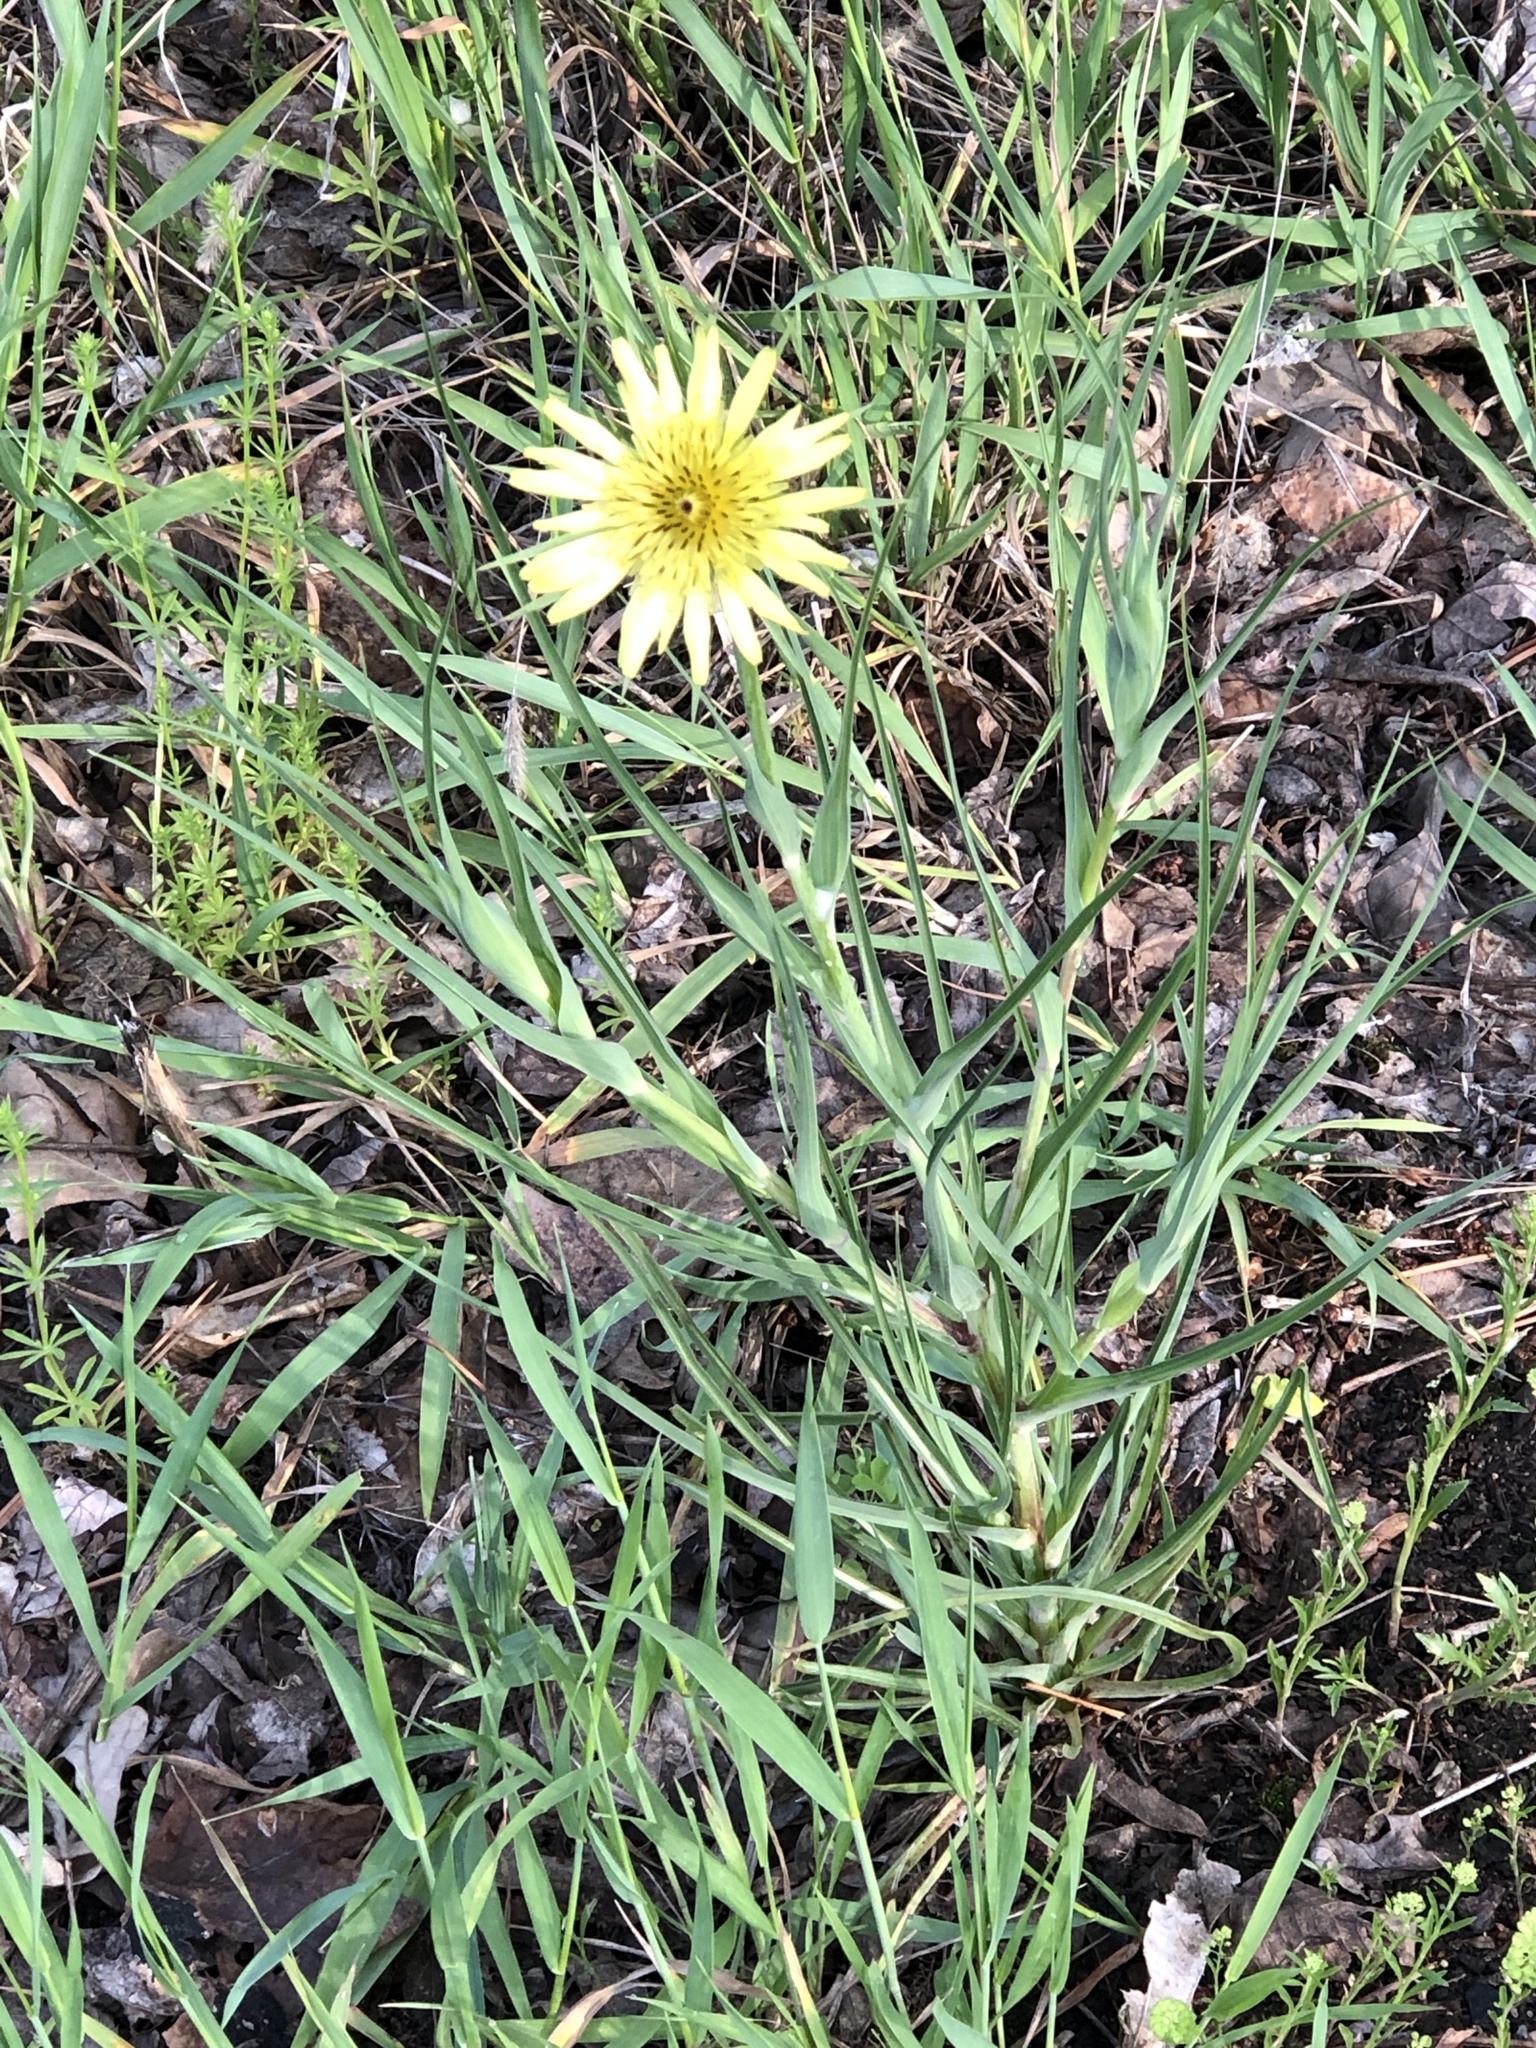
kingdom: Plantae
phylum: Tracheophyta
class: Magnoliopsida
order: Asterales
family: Asteraceae
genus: Tragopogon
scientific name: Tragopogon dubius
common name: Yellow salsify
